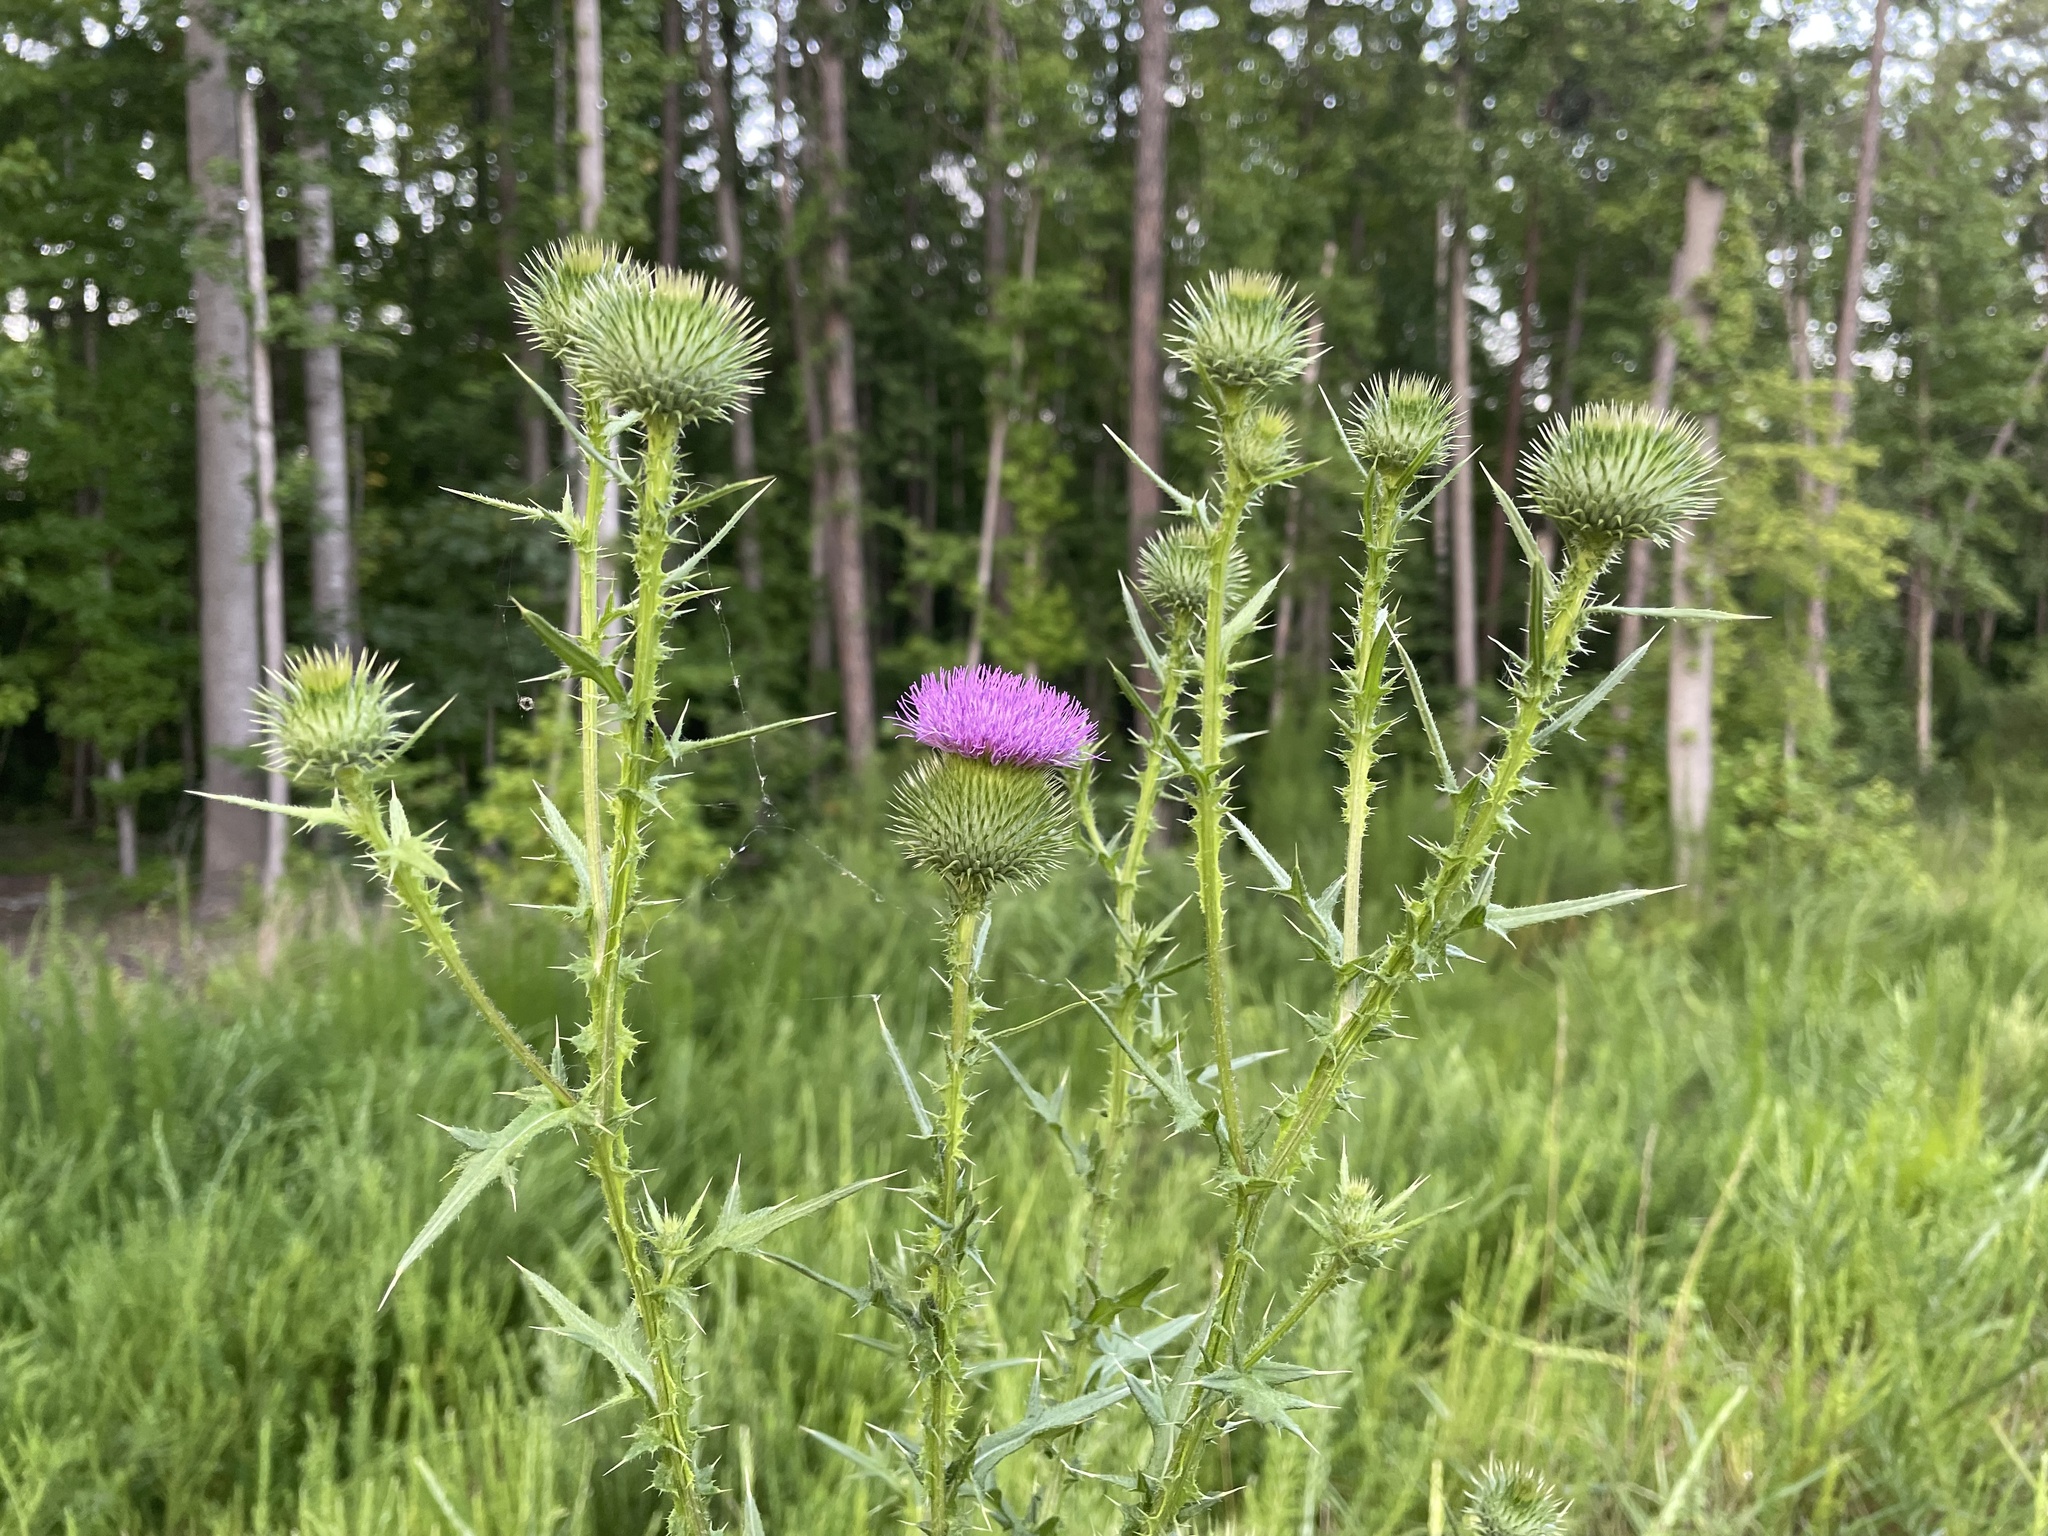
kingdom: Plantae
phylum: Tracheophyta
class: Magnoliopsida
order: Asterales
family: Asteraceae
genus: Cirsium
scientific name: Cirsium vulgare
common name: Bull thistle
